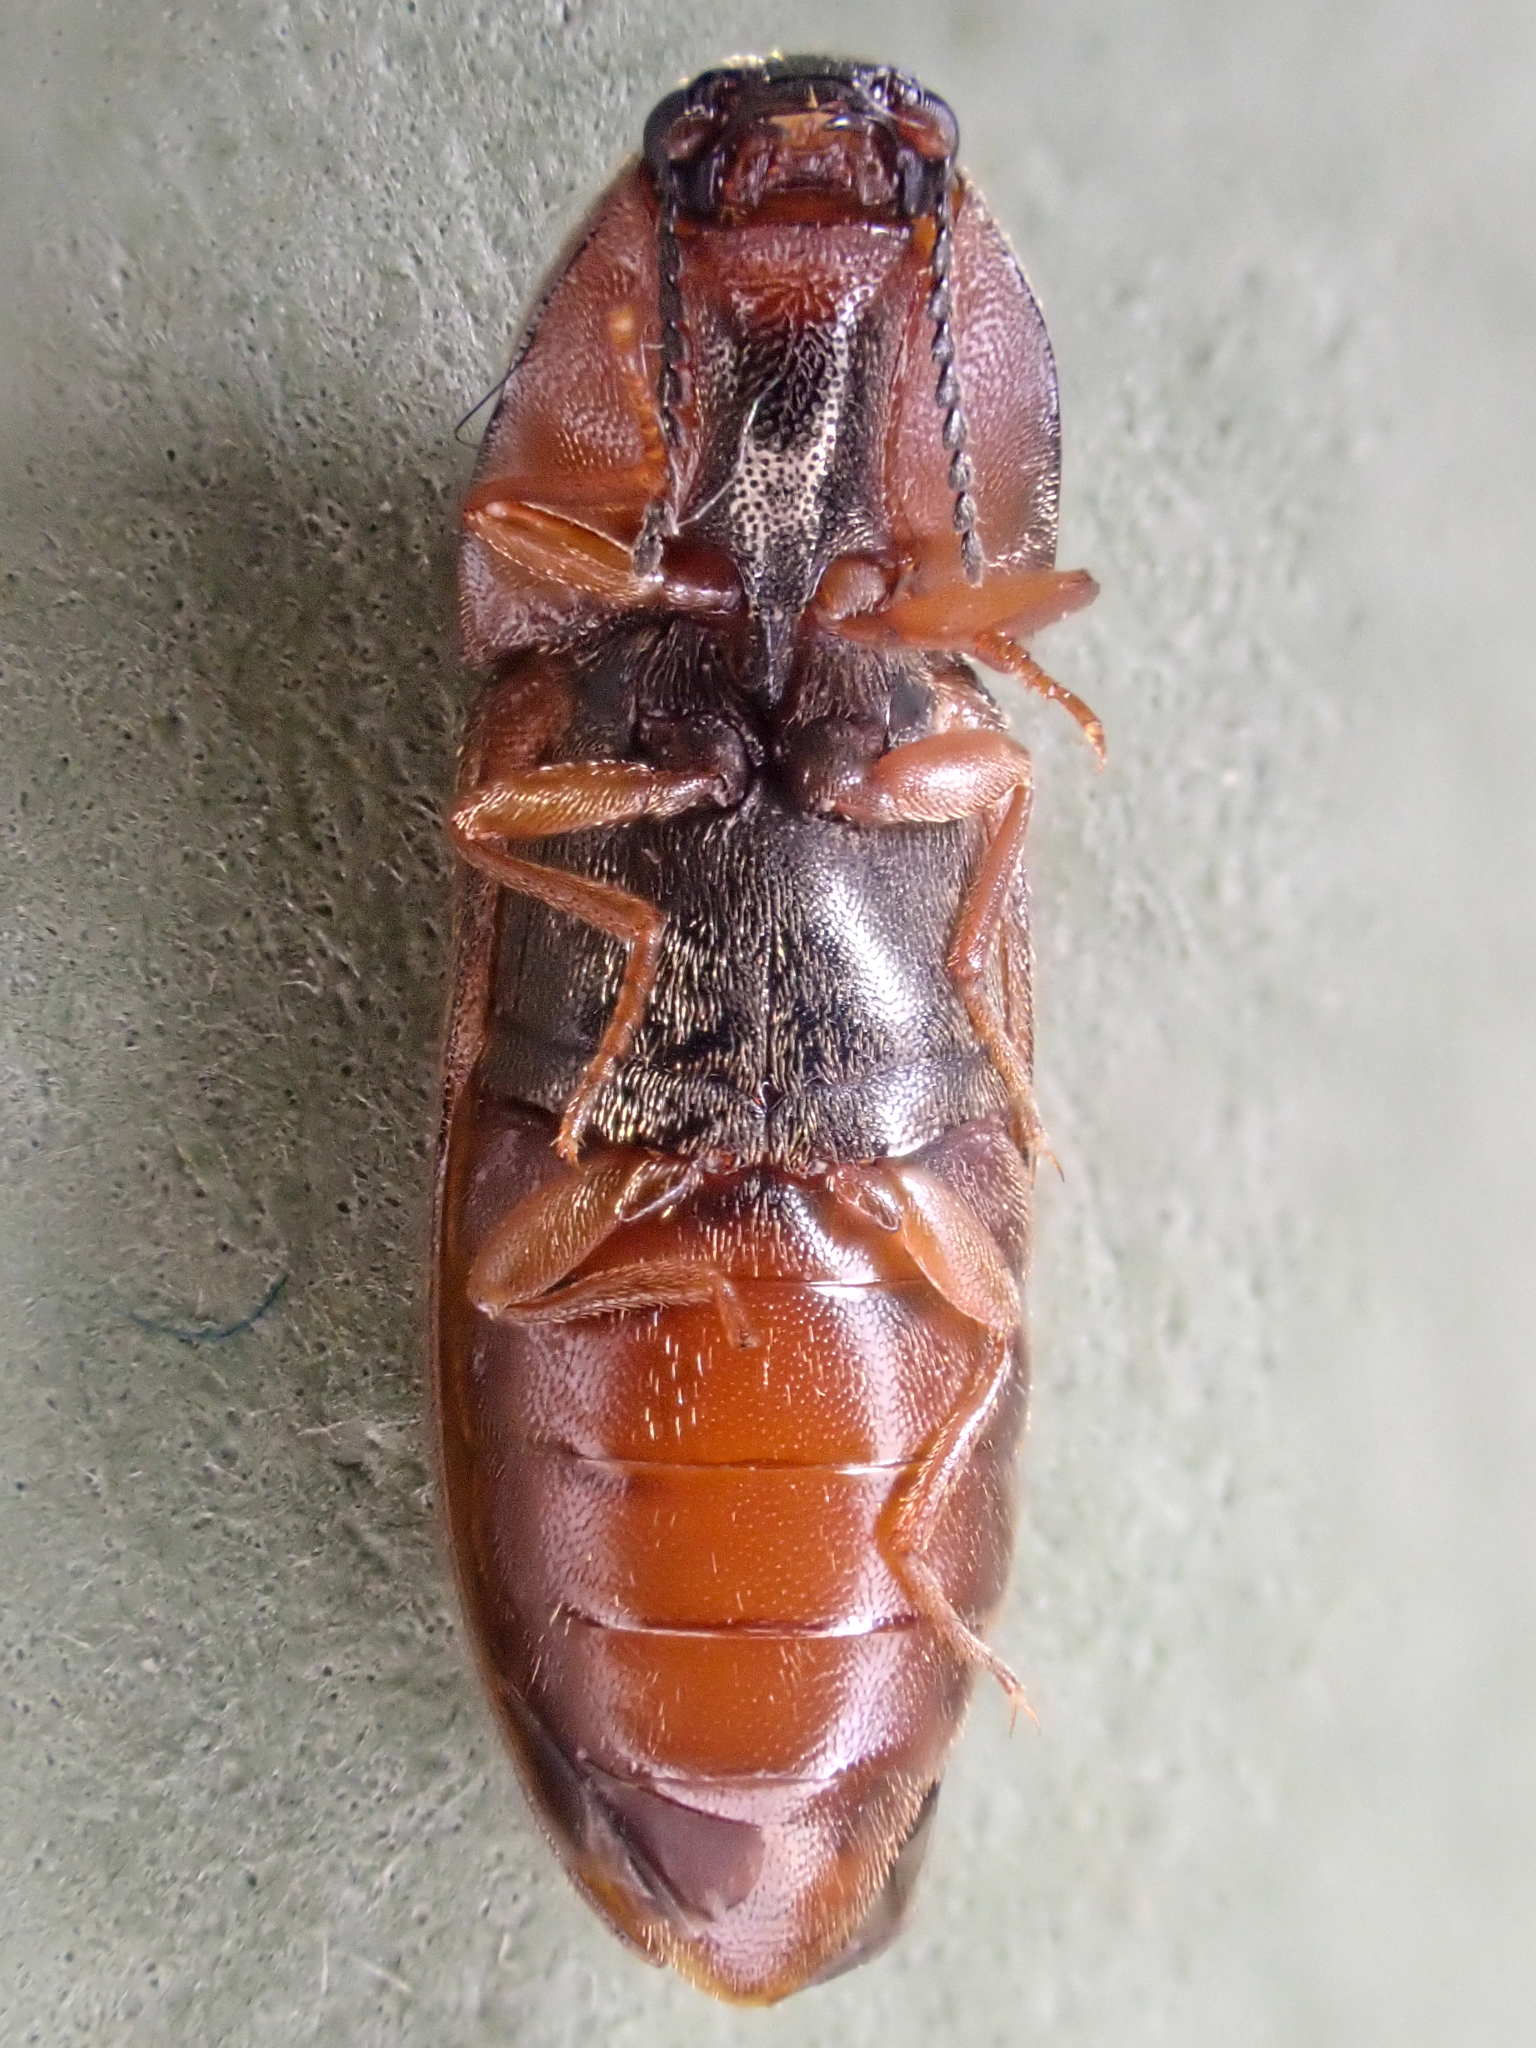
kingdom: Animalia
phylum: Arthropoda
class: Insecta
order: Coleoptera
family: Elateridae
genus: Sericus
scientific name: Sericus incongruus
